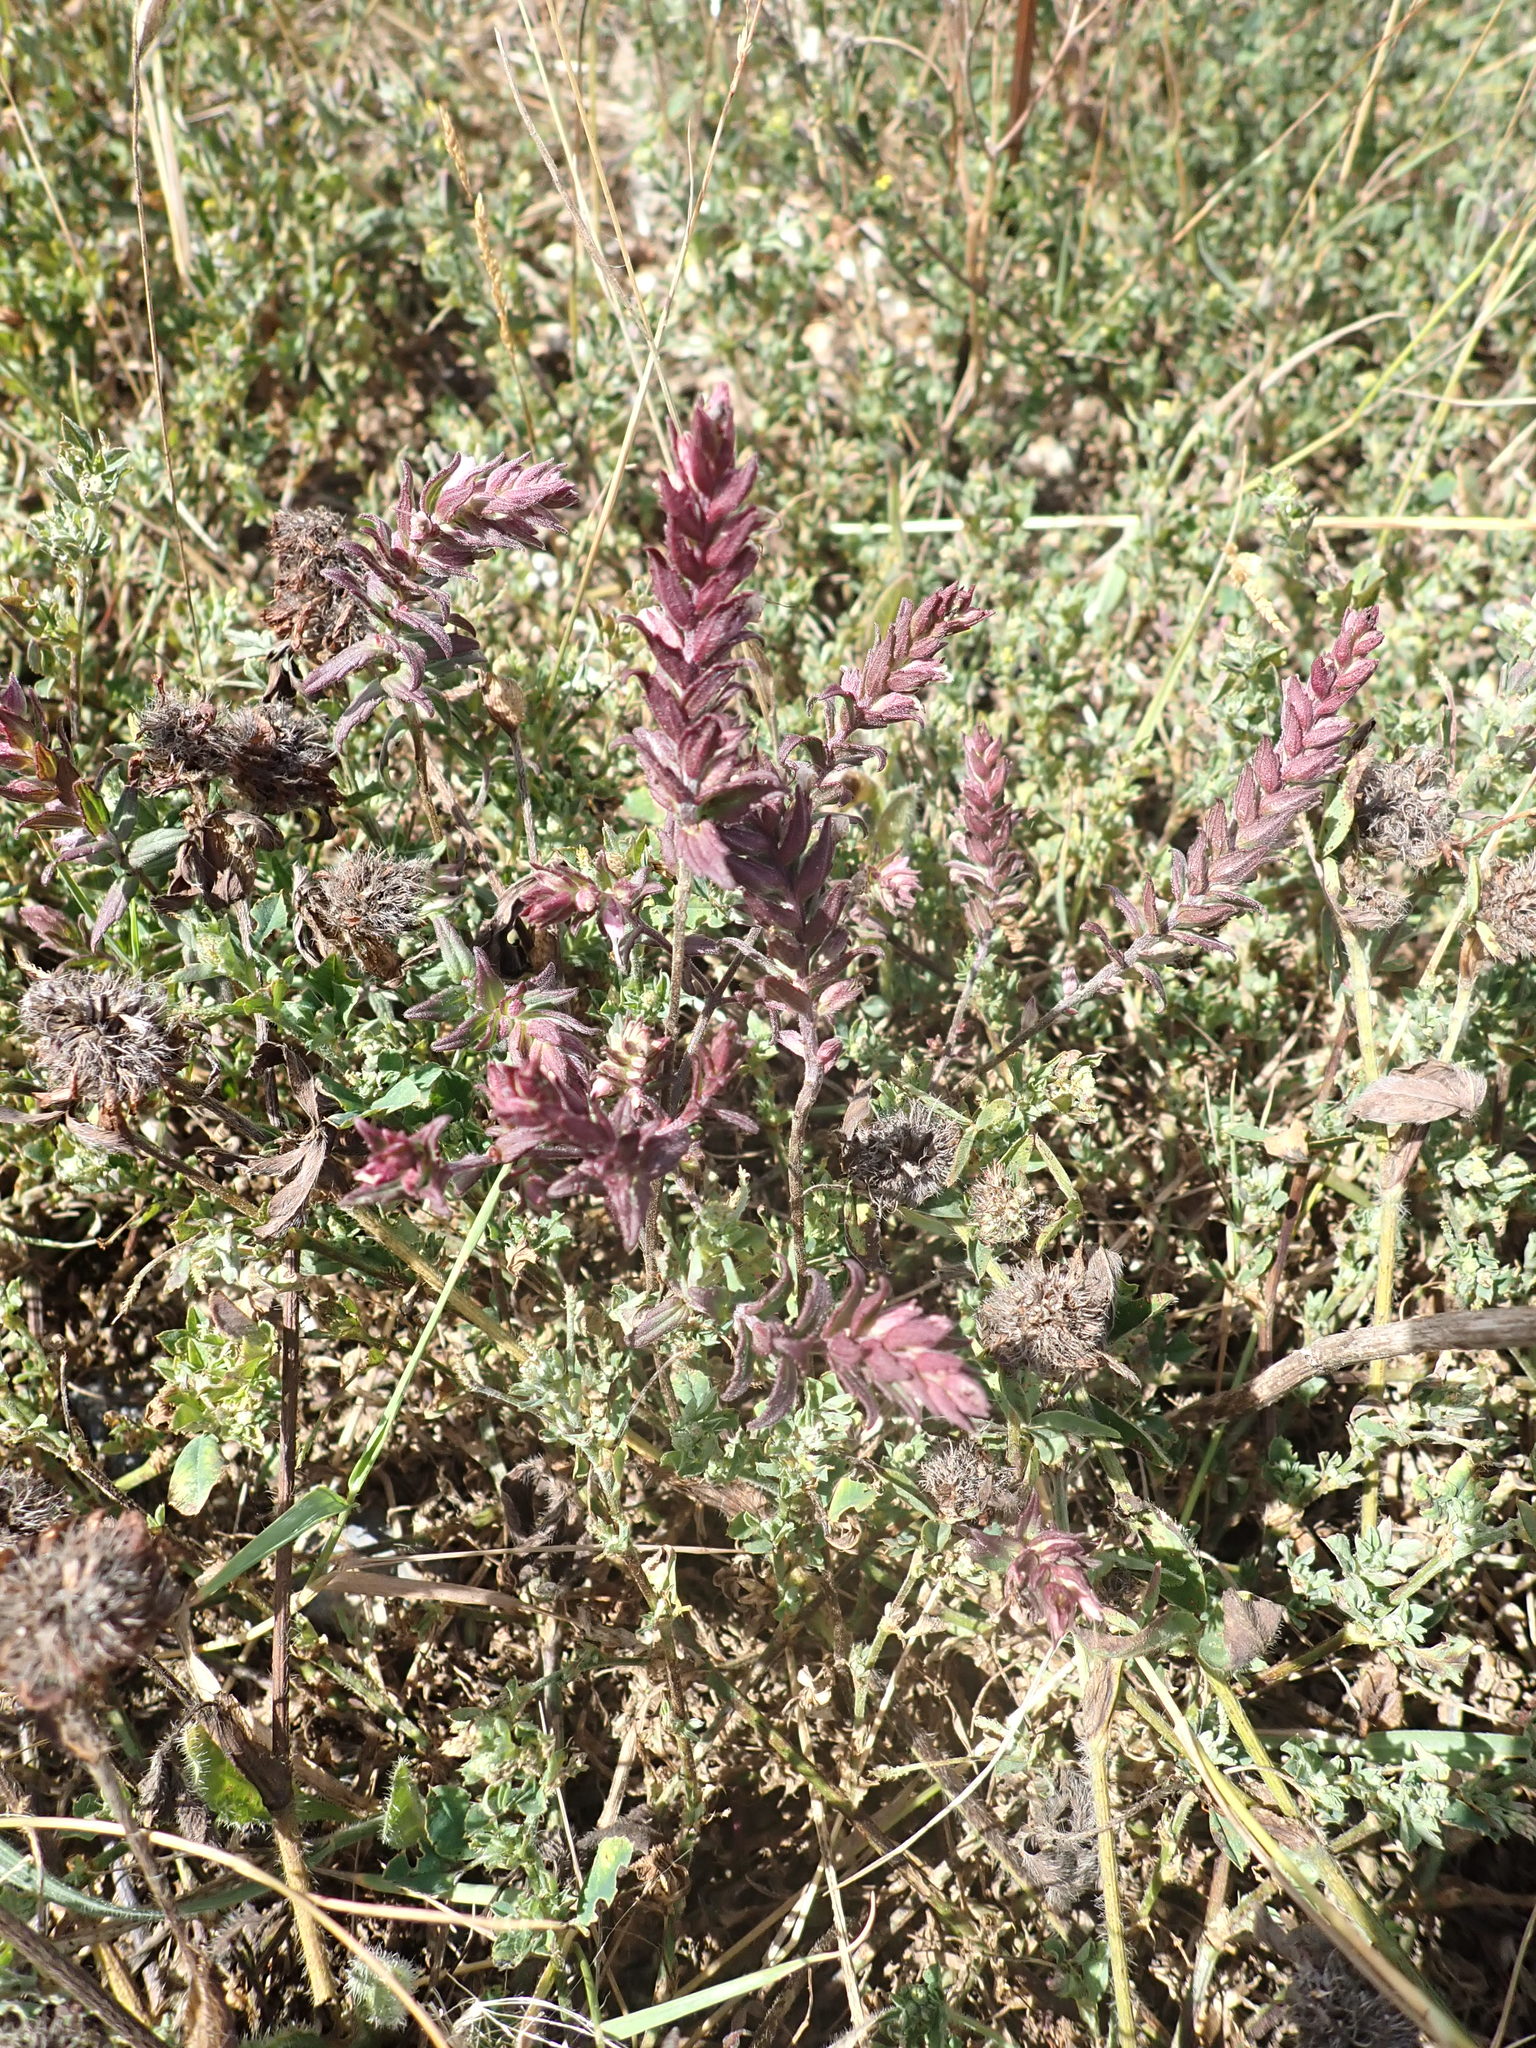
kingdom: Plantae
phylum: Tracheophyta
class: Magnoliopsida
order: Lamiales
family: Orobanchaceae
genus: Odontites
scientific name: Odontites vulgaris
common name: Broomrape
